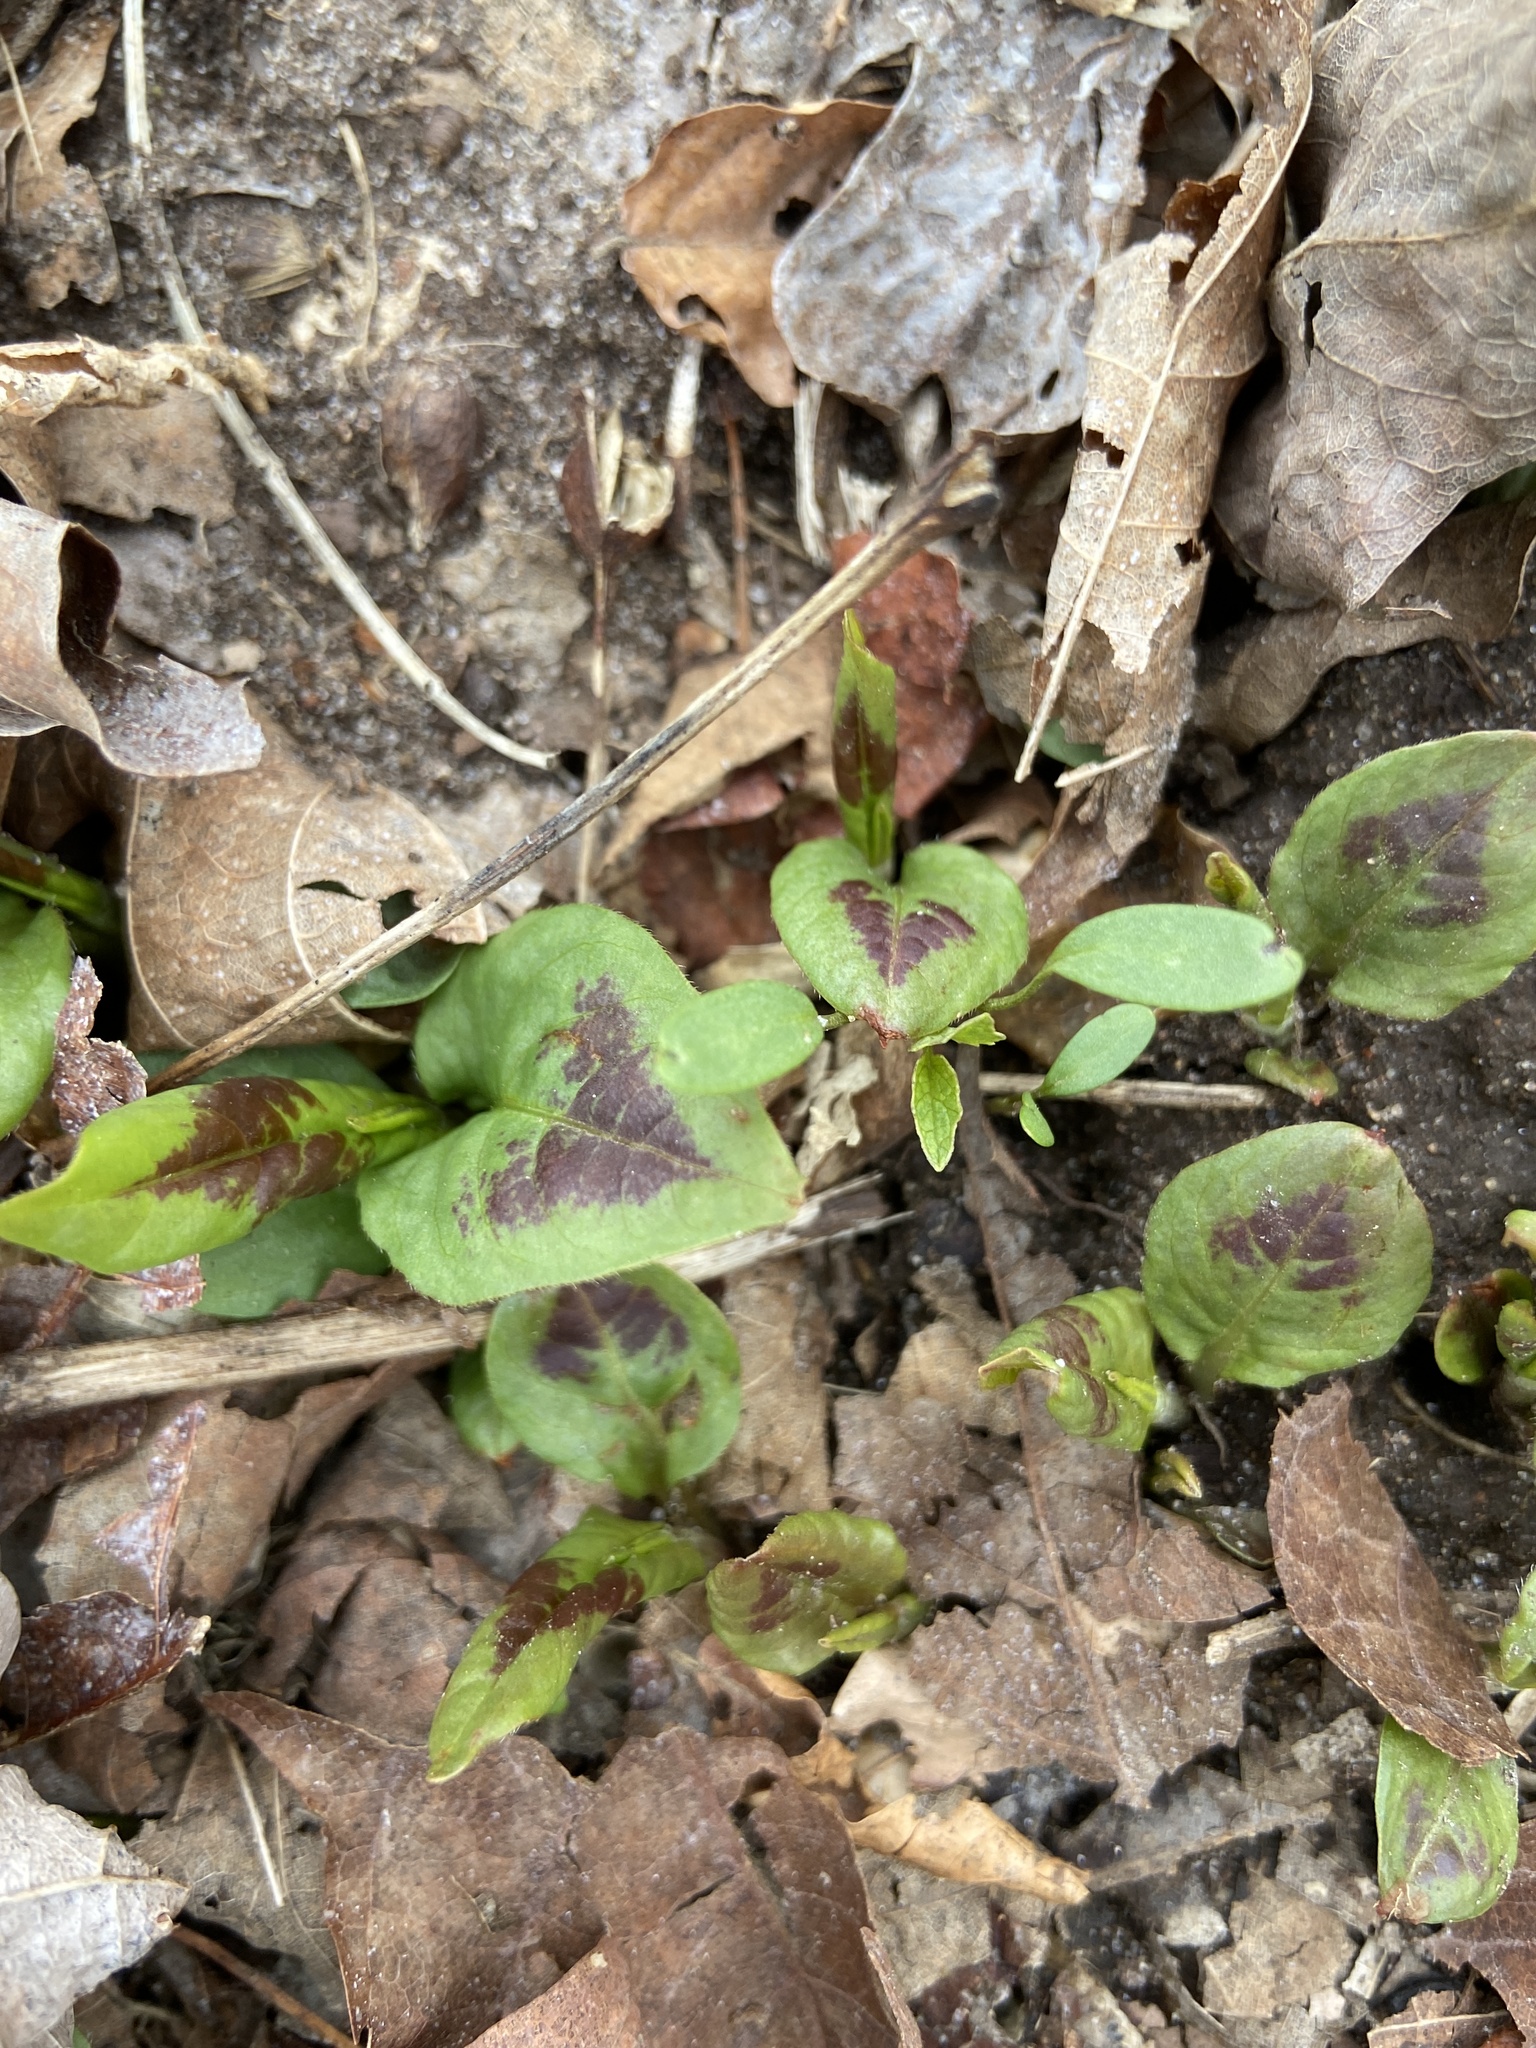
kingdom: Plantae
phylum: Tracheophyta
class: Magnoliopsida
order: Caryophyllales
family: Polygonaceae
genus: Persicaria
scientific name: Persicaria virginiana
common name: Jumpseed
